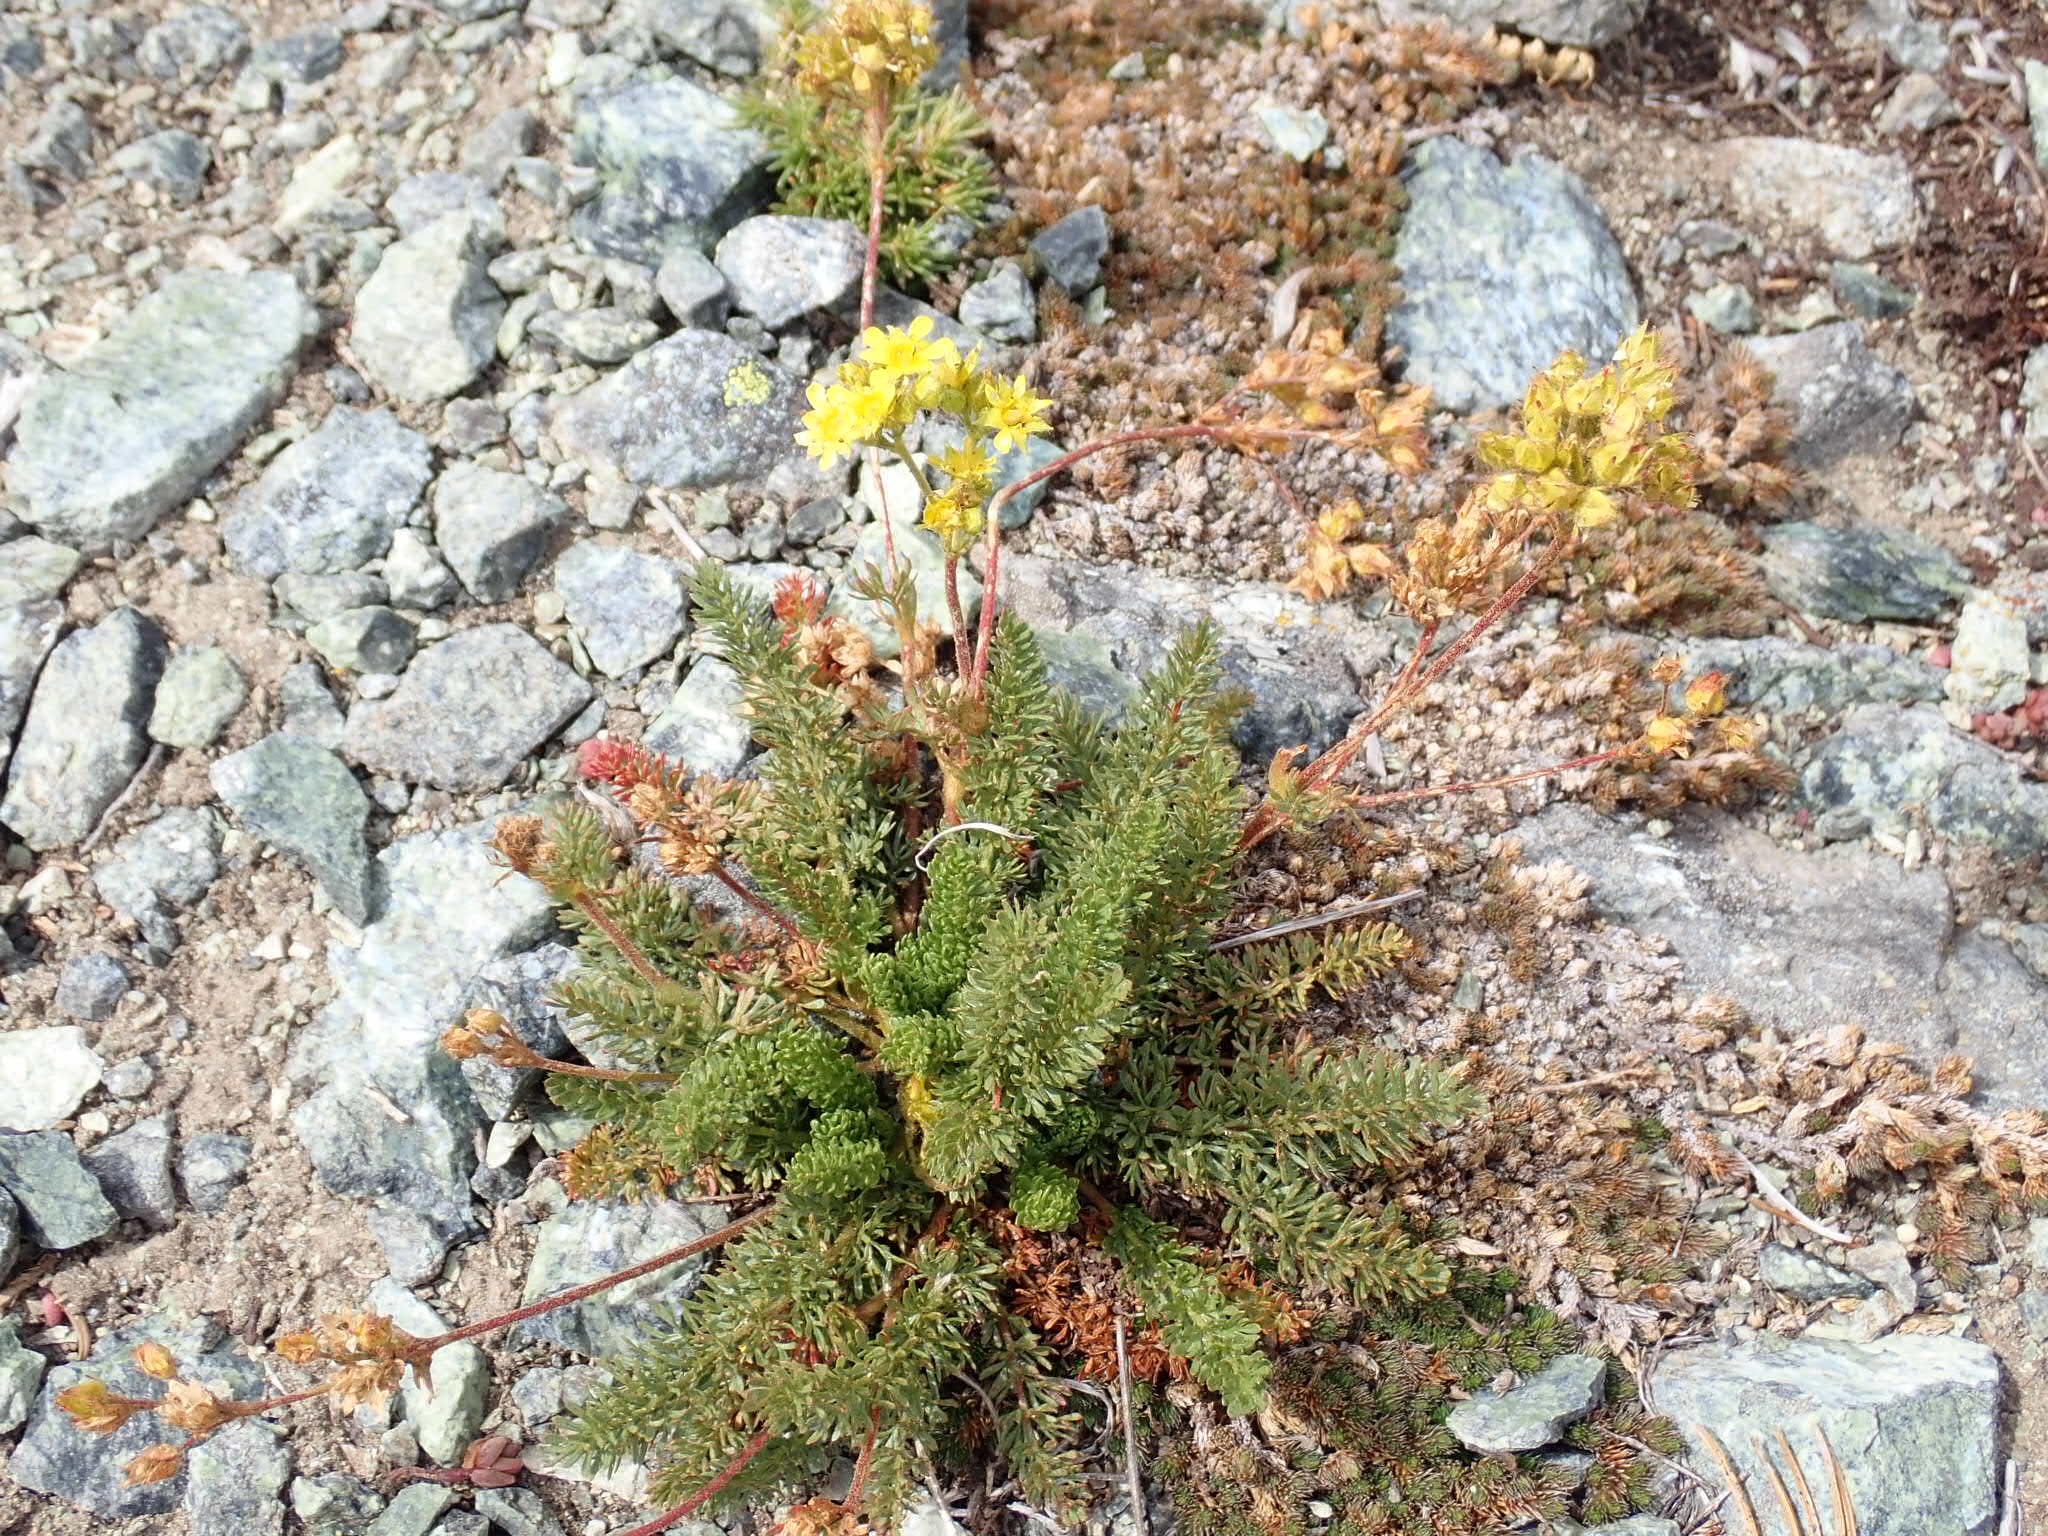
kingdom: Plantae
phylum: Tracheophyta
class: Magnoliopsida
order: Rosales
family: Rosaceae
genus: Potentilla
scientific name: Potentilla tweedyi
